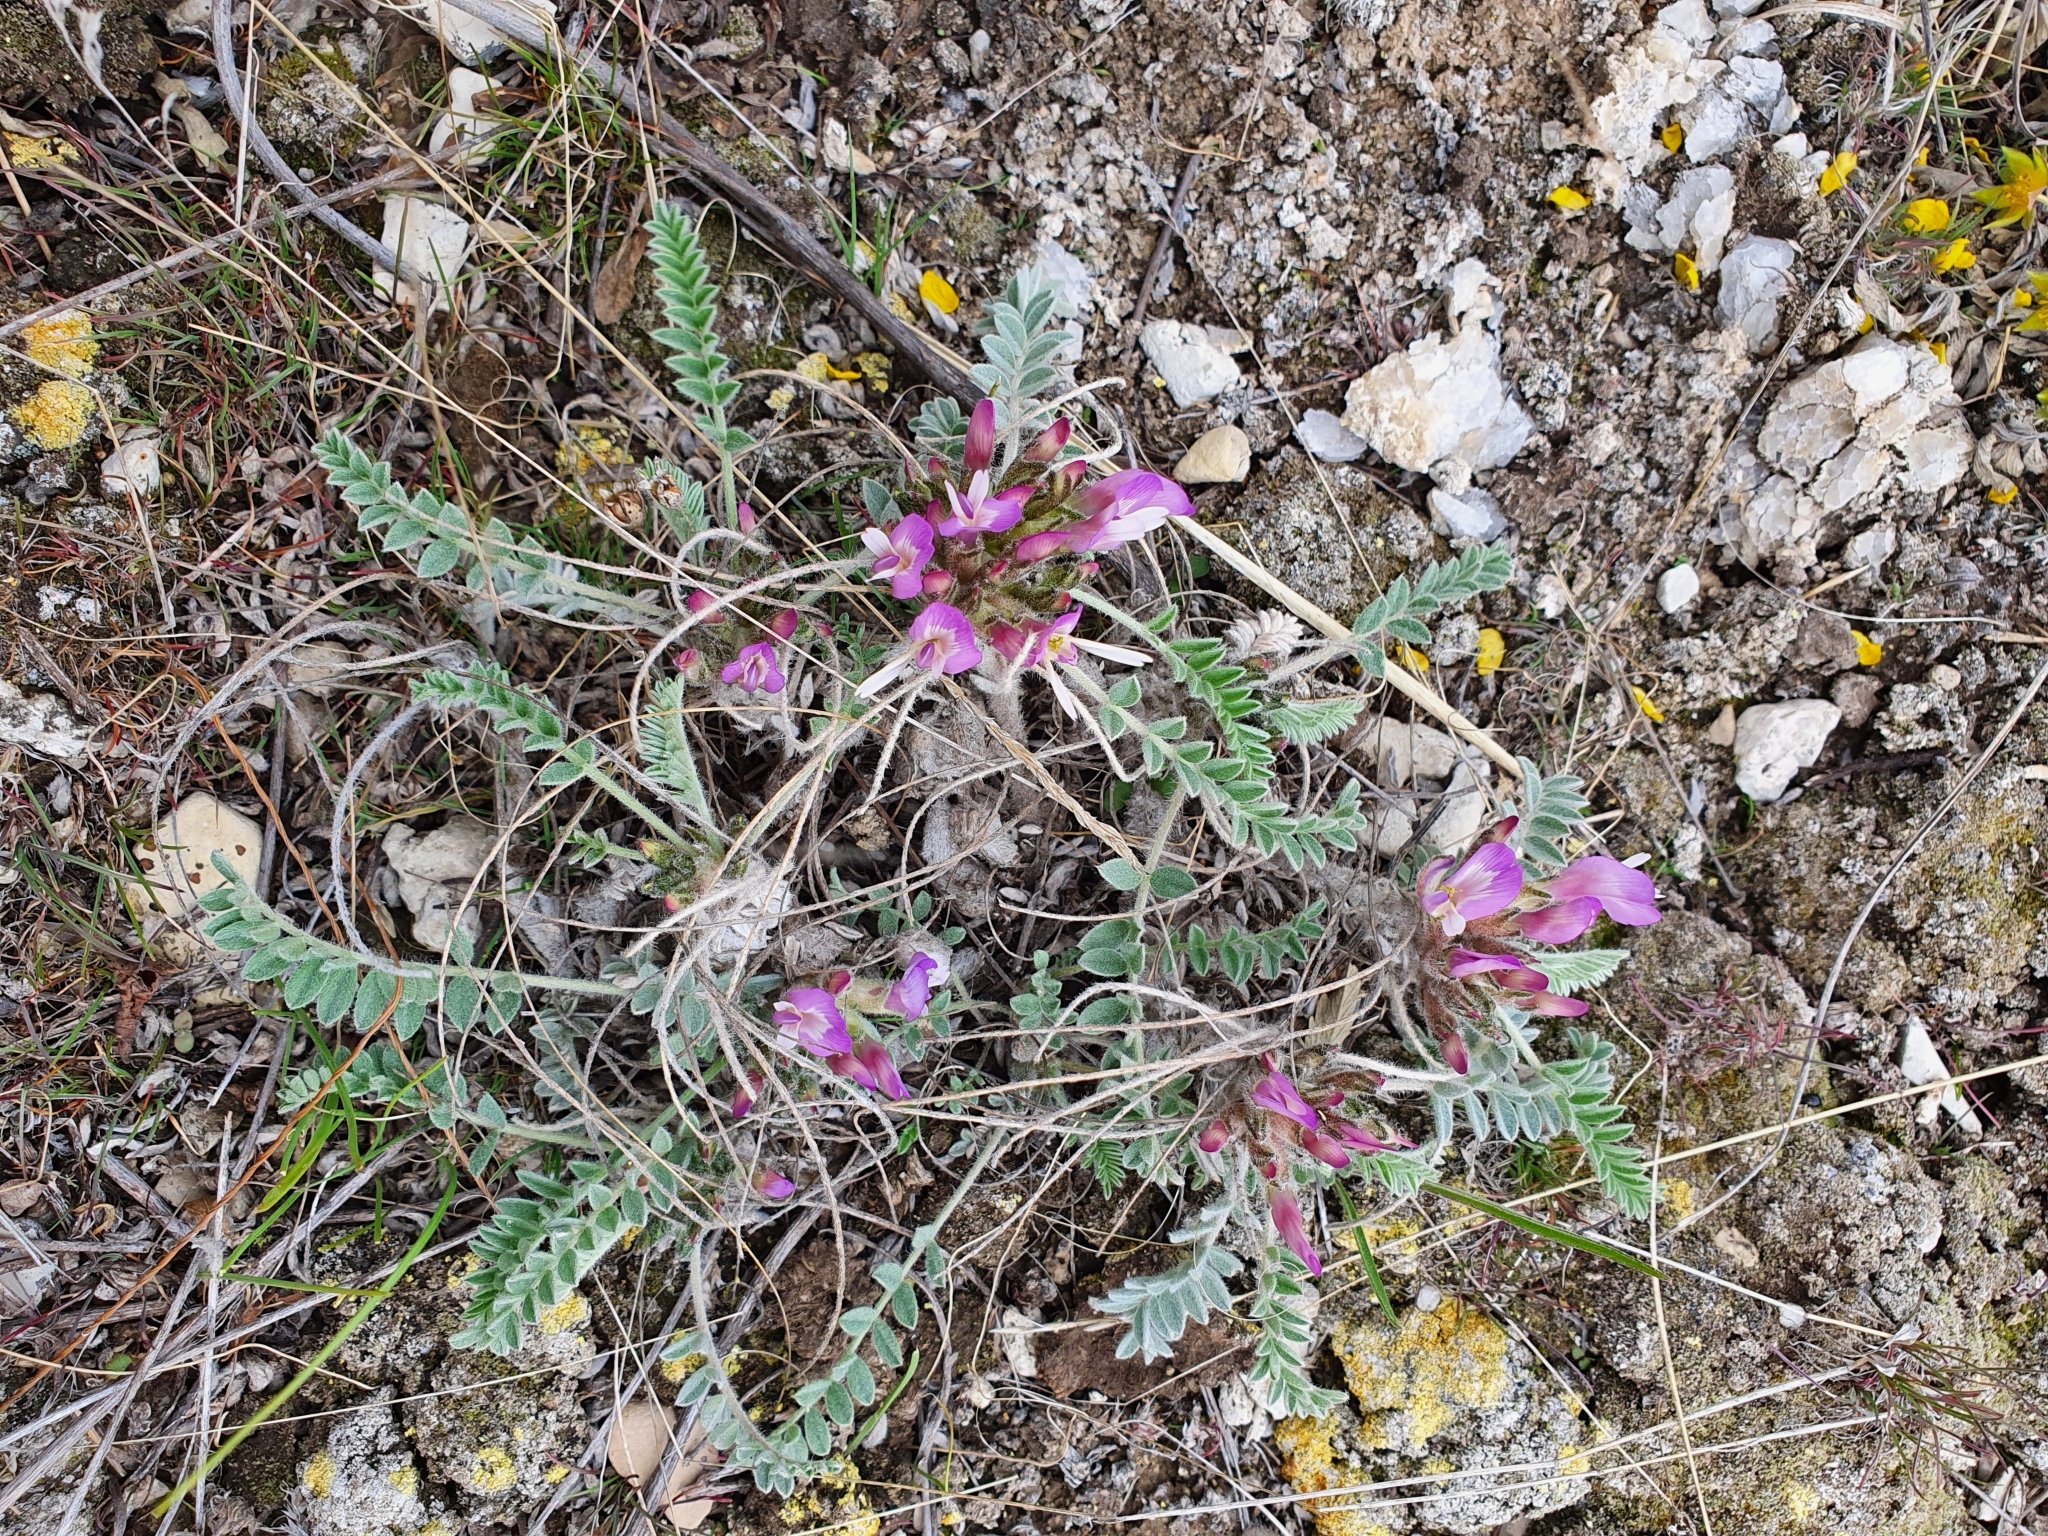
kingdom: Plantae
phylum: Tracheophyta
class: Magnoliopsida
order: Fabales
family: Fabaceae
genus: Astragalus
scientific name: Astragalus testiculatus
